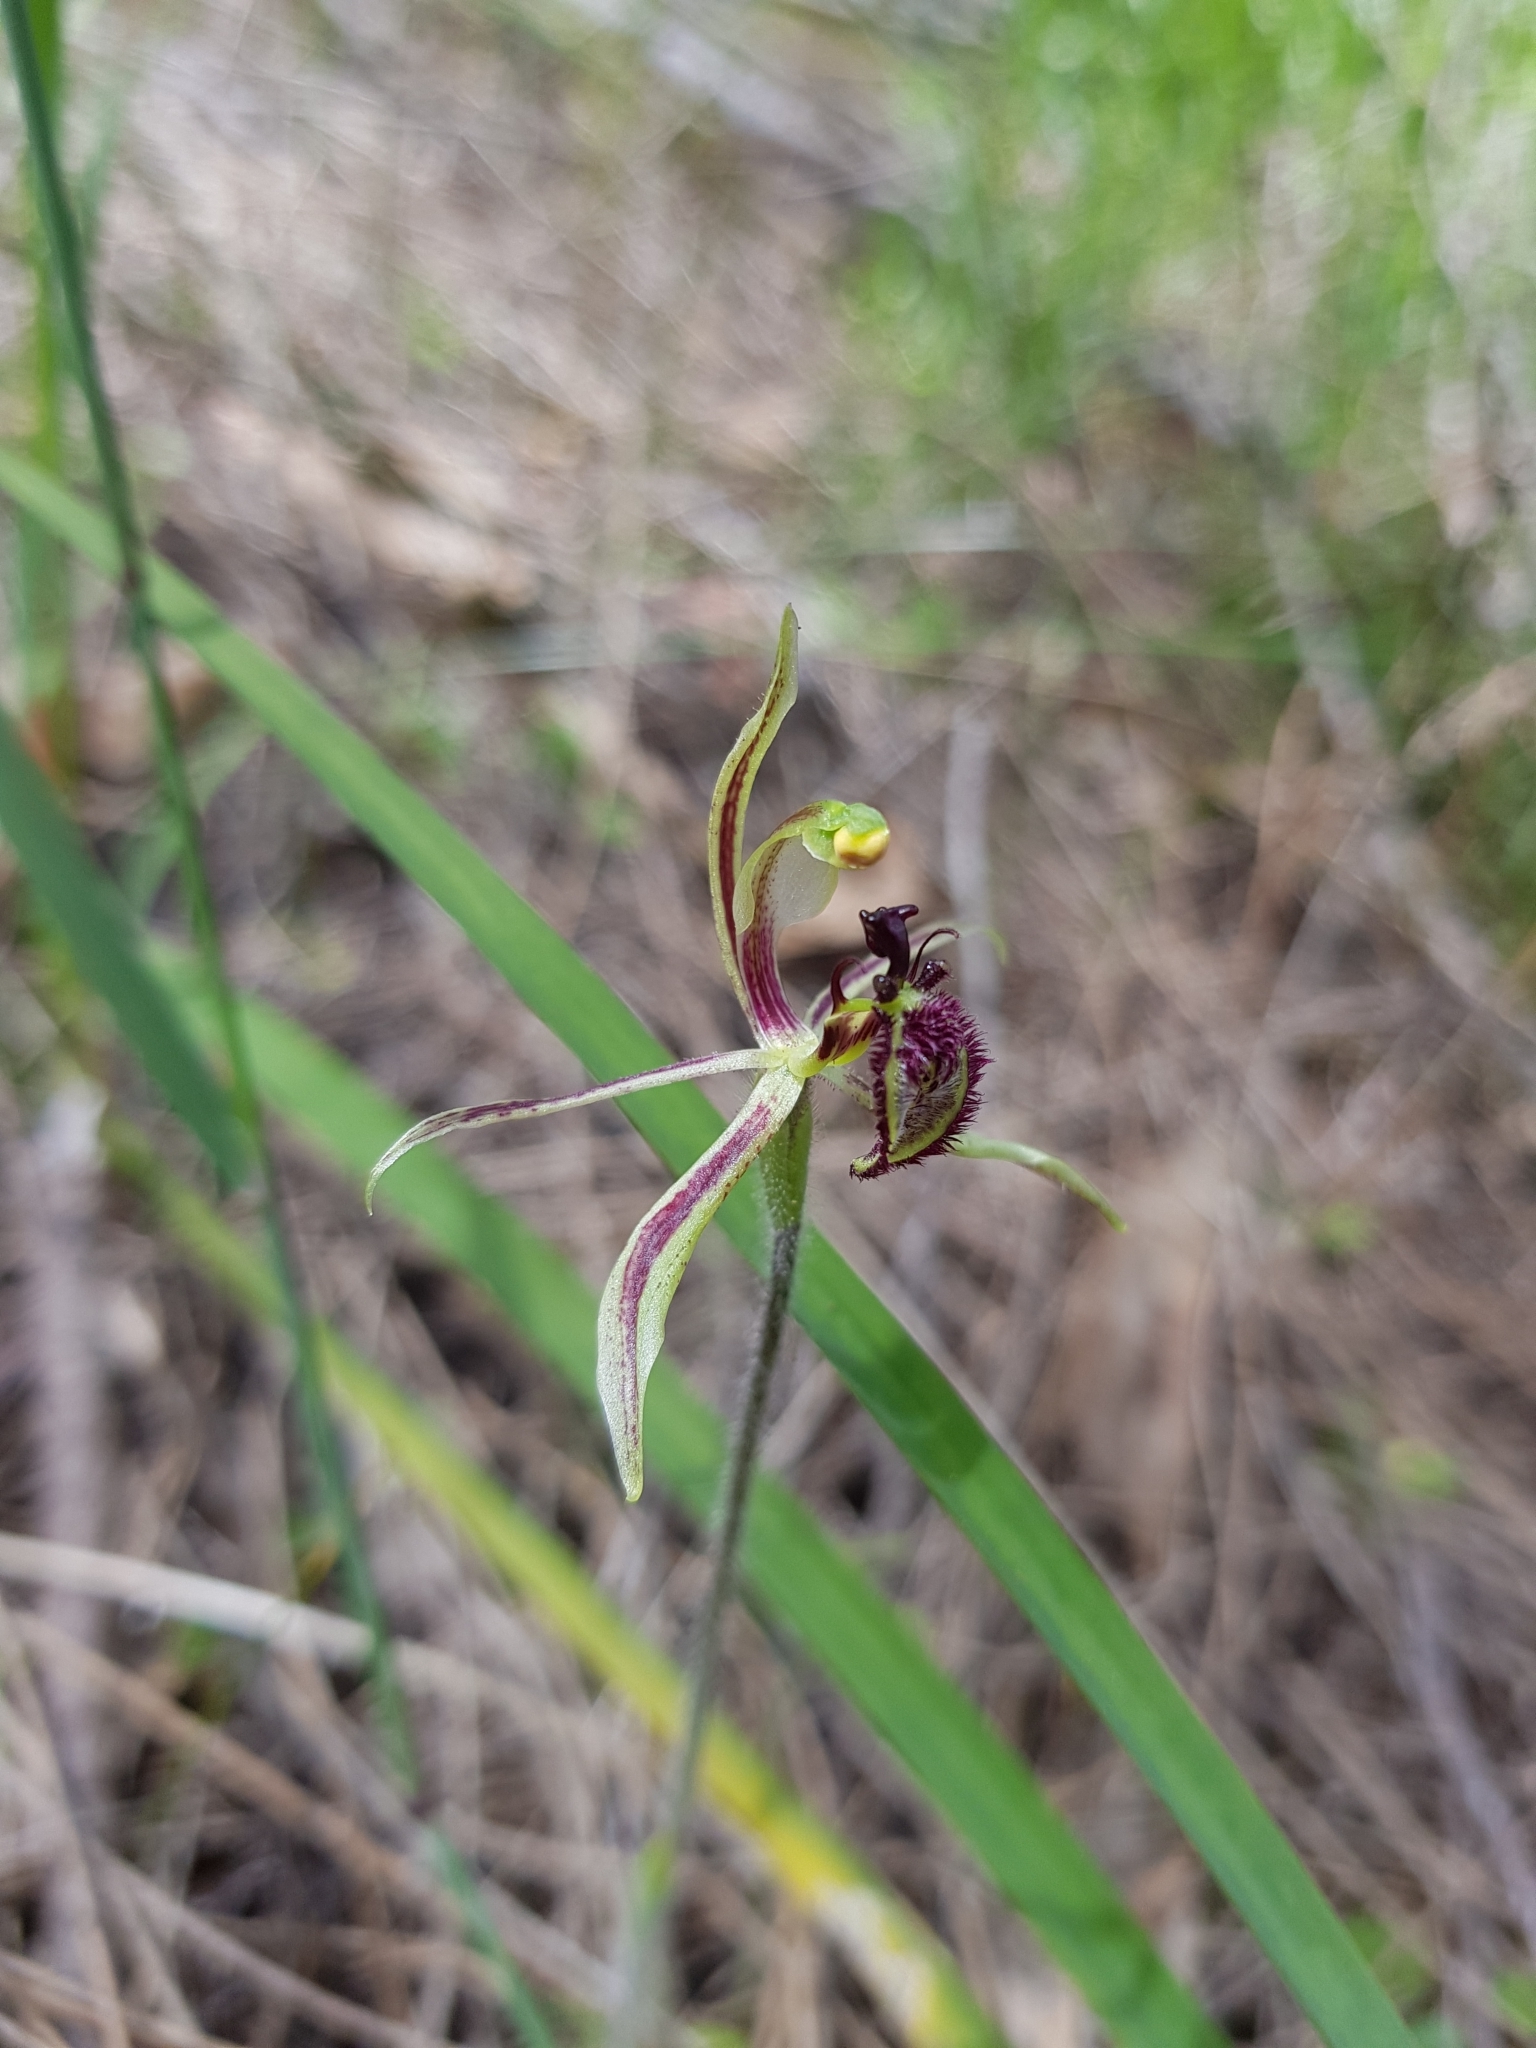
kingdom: Plantae
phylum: Tracheophyta
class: Liliopsida
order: Asparagales
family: Orchidaceae
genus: Caladenia
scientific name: Caladenia barbarossa
